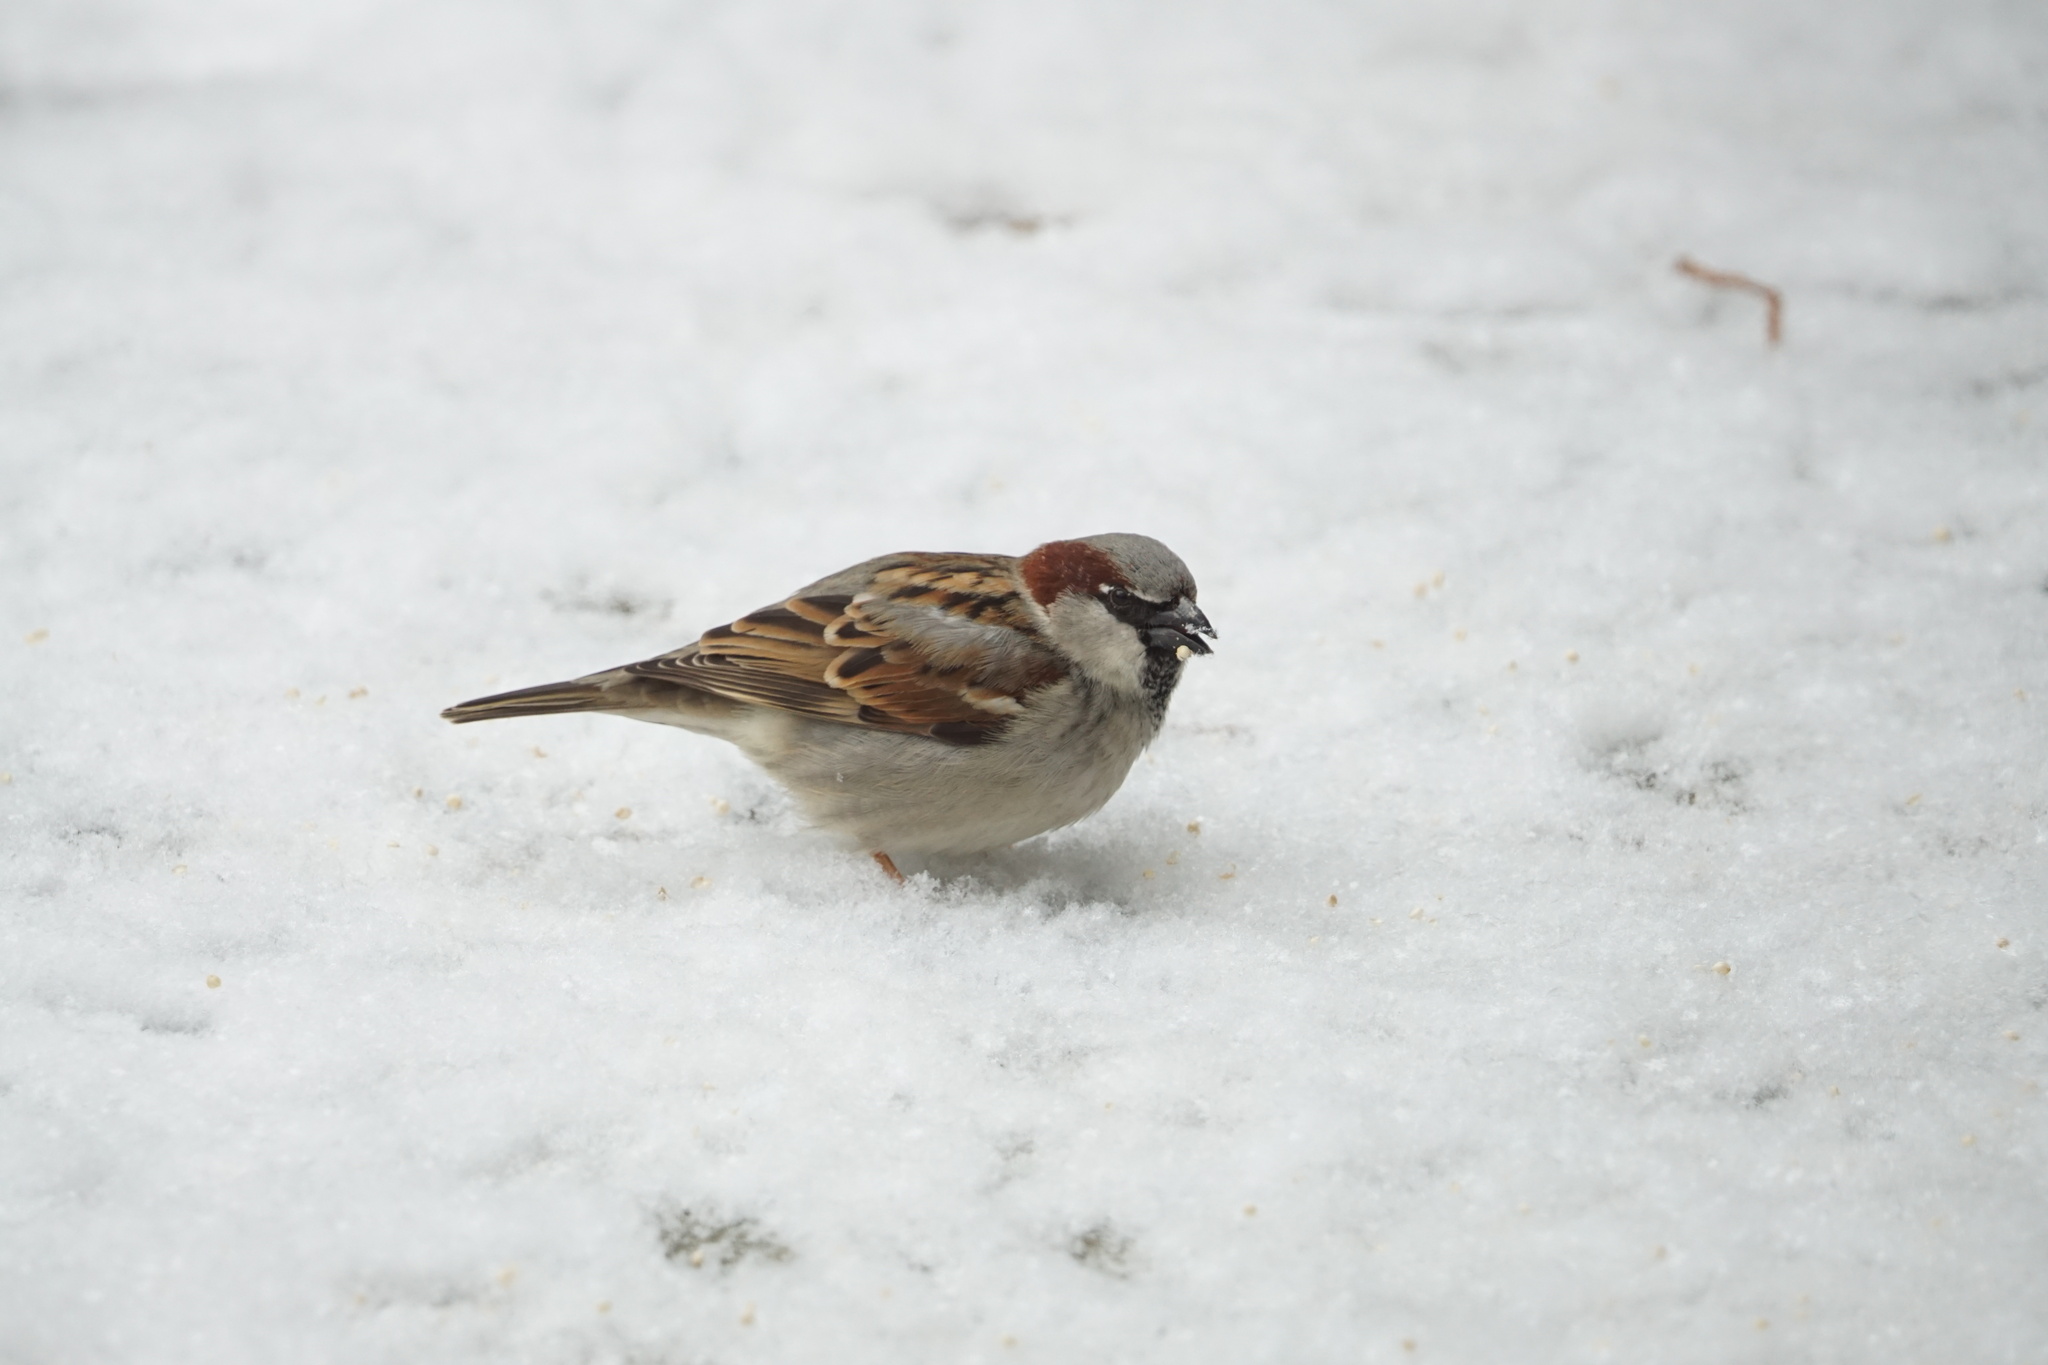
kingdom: Animalia
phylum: Chordata
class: Aves
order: Passeriformes
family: Passeridae
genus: Passer
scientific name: Passer domesticus
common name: House sparrow
